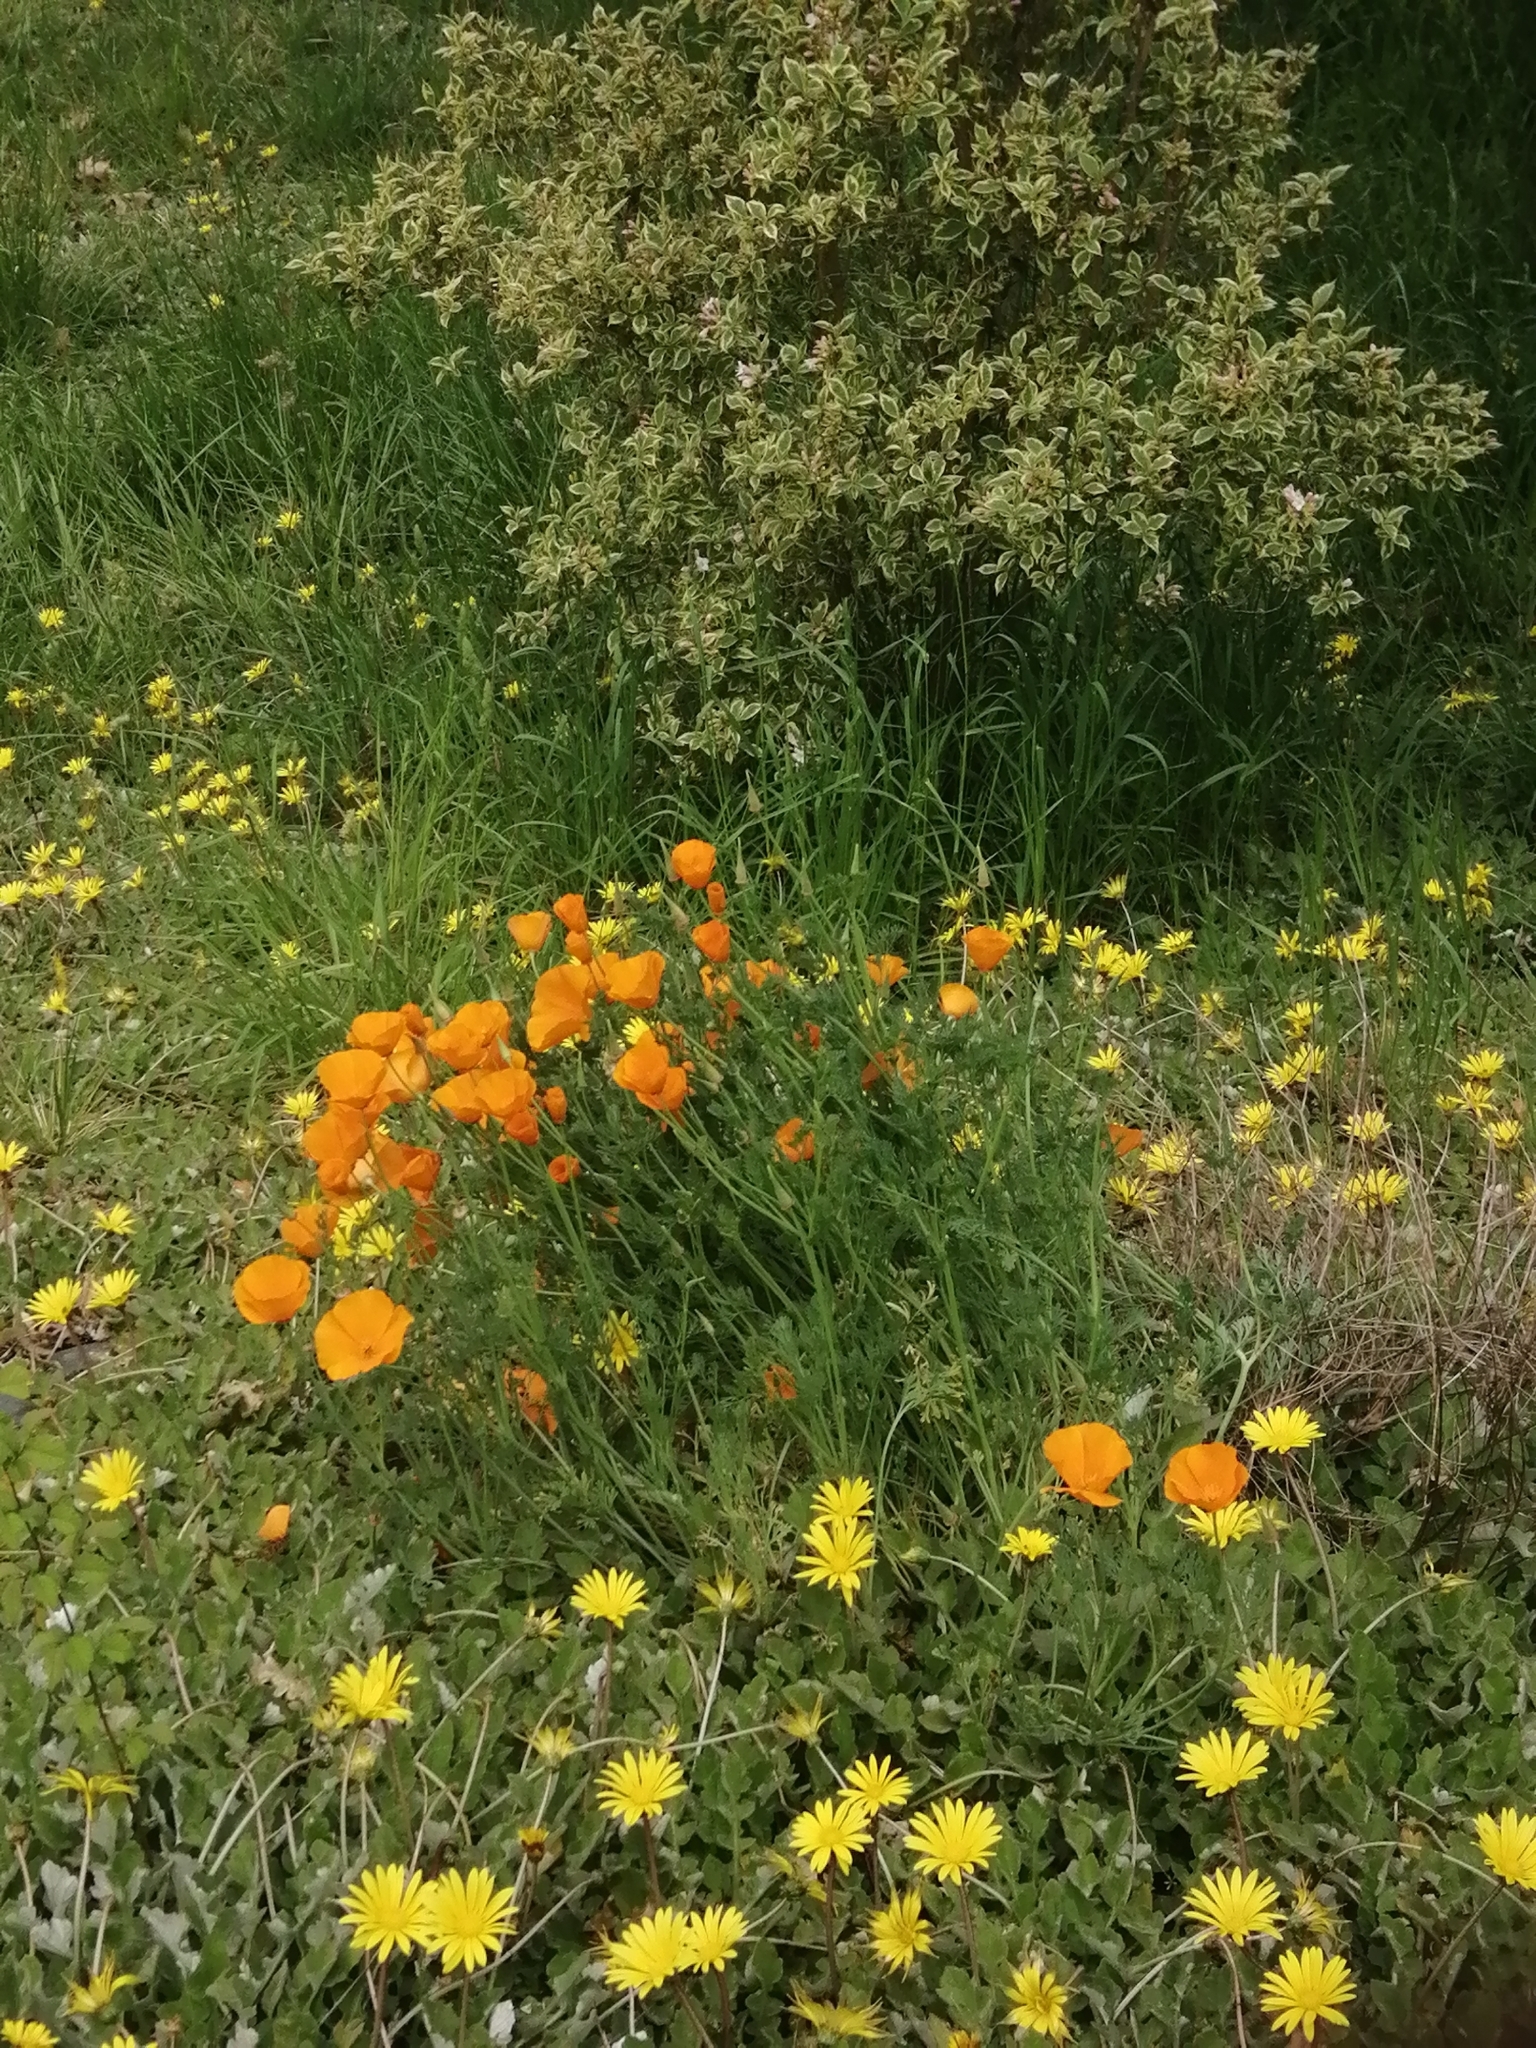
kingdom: Plantae
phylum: Tracheophyta
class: Magnoliopsida
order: Ranunculales
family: Papaveraceae
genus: Eschscholzia
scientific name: Eschscholzia californica
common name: California poppy
